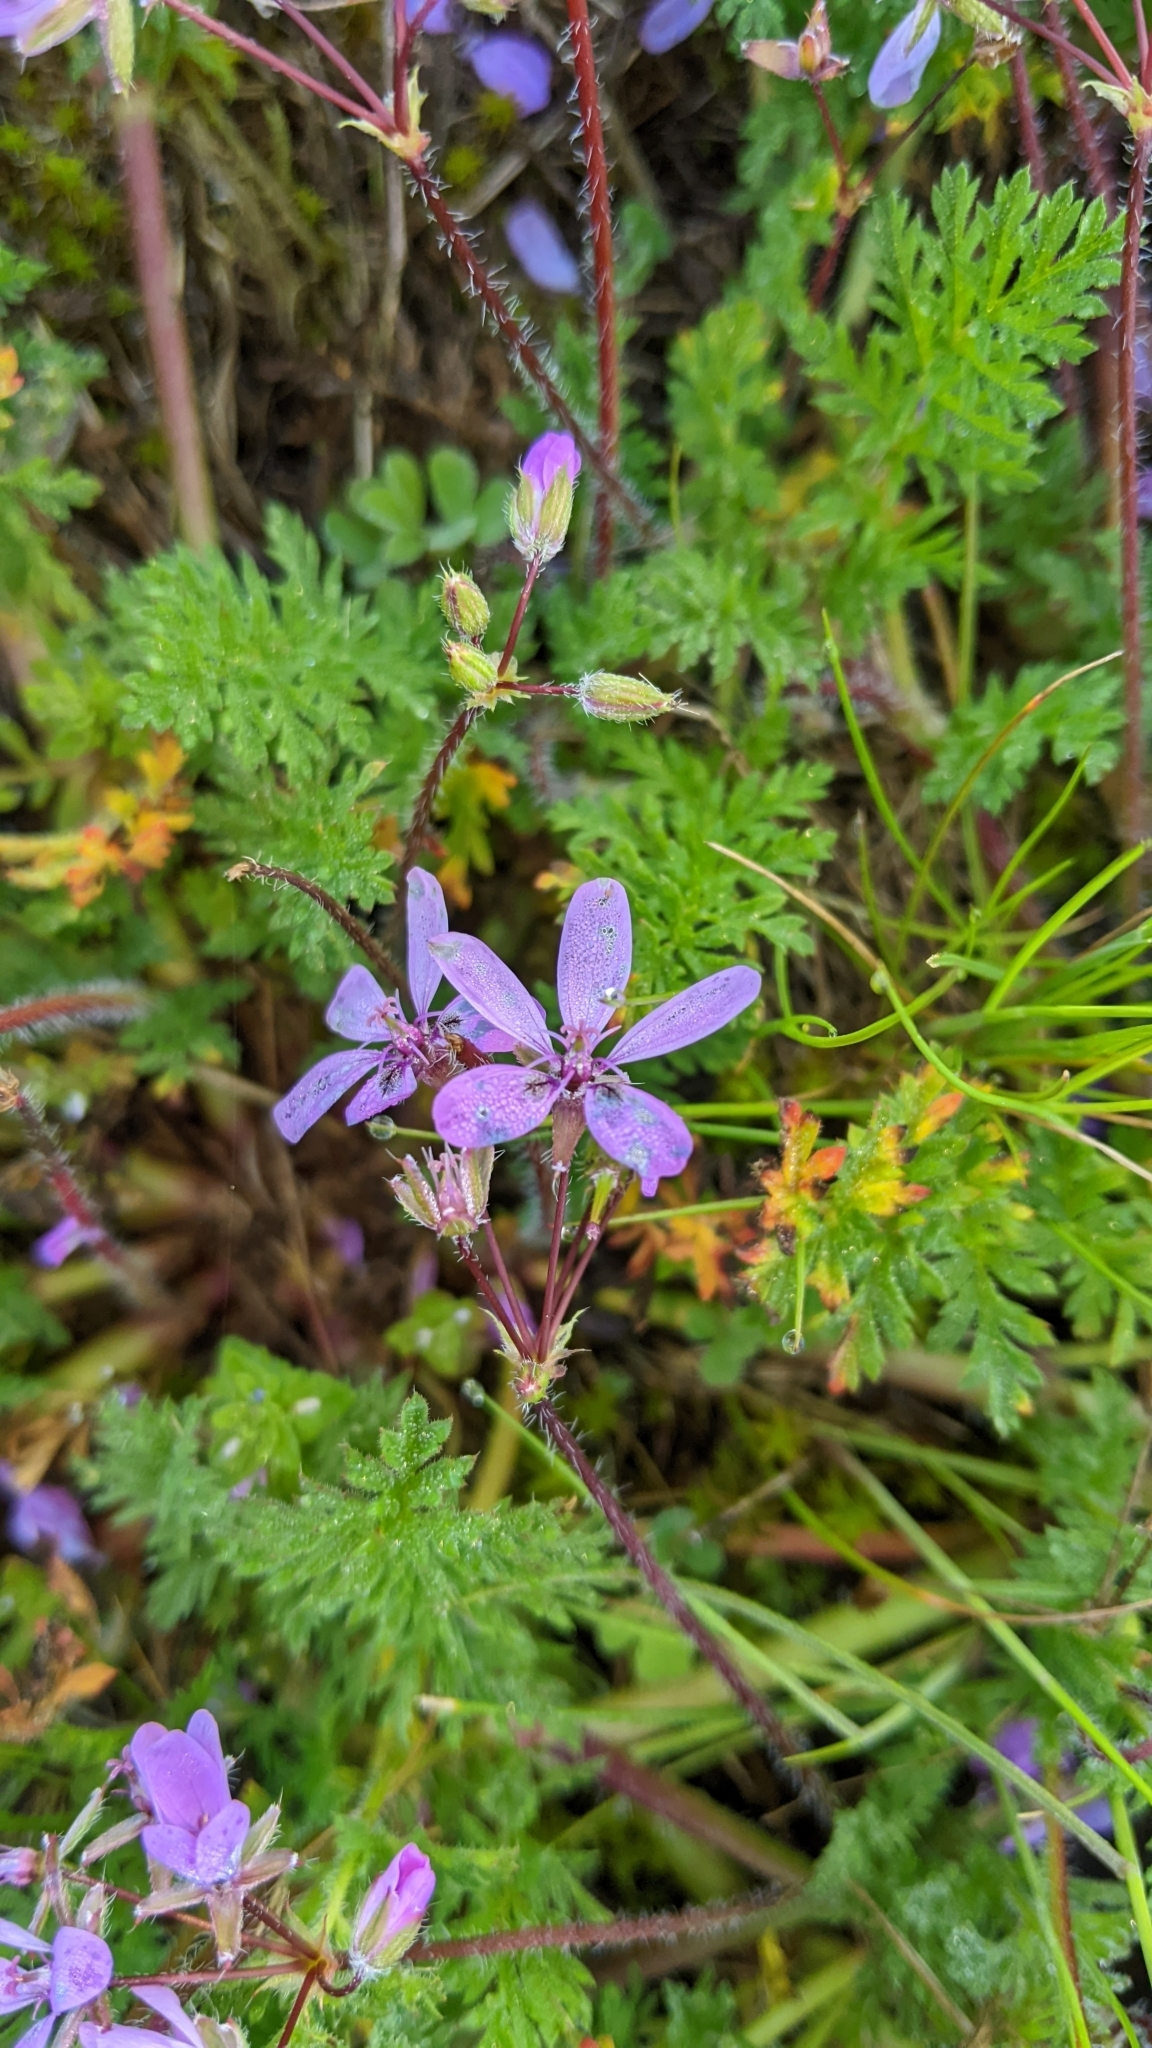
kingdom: Plantae
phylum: Tracheophyta
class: Magnoliopsida
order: Geraniales
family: Geraniaceae
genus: Erodium
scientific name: Erodium cicutarium
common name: Common stork's-bill
